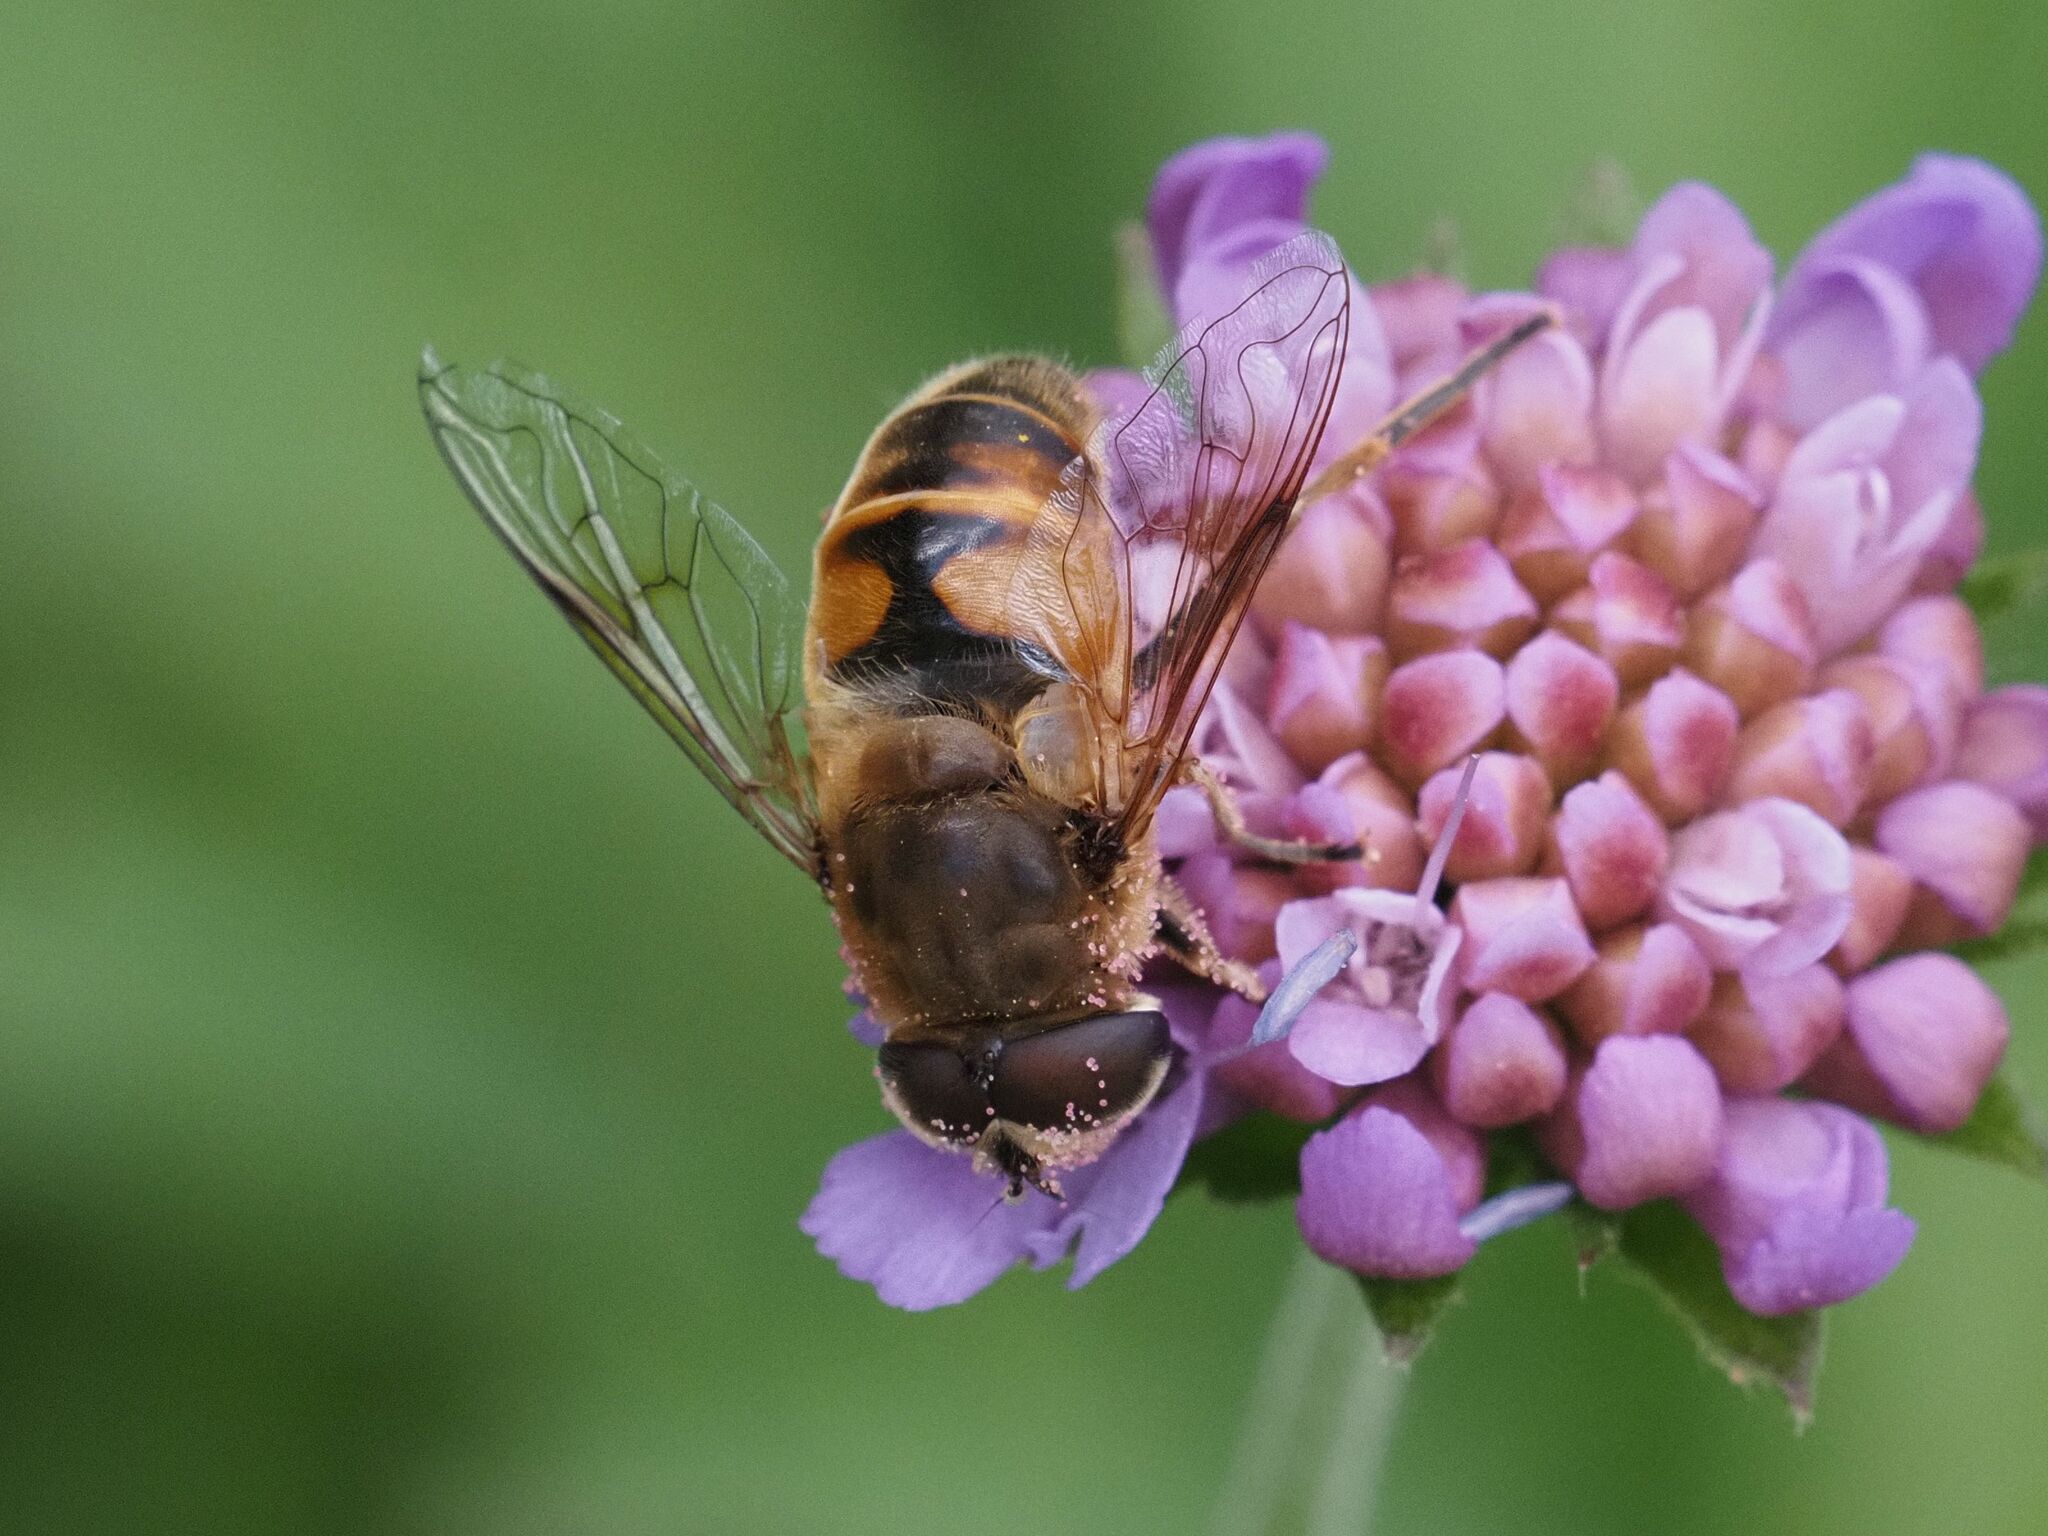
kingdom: Animalia
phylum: Arthropoda
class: Insecta
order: Diptera
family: Syrphidae
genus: Eristalis
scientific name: Eristalis tenax
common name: Drone fly
